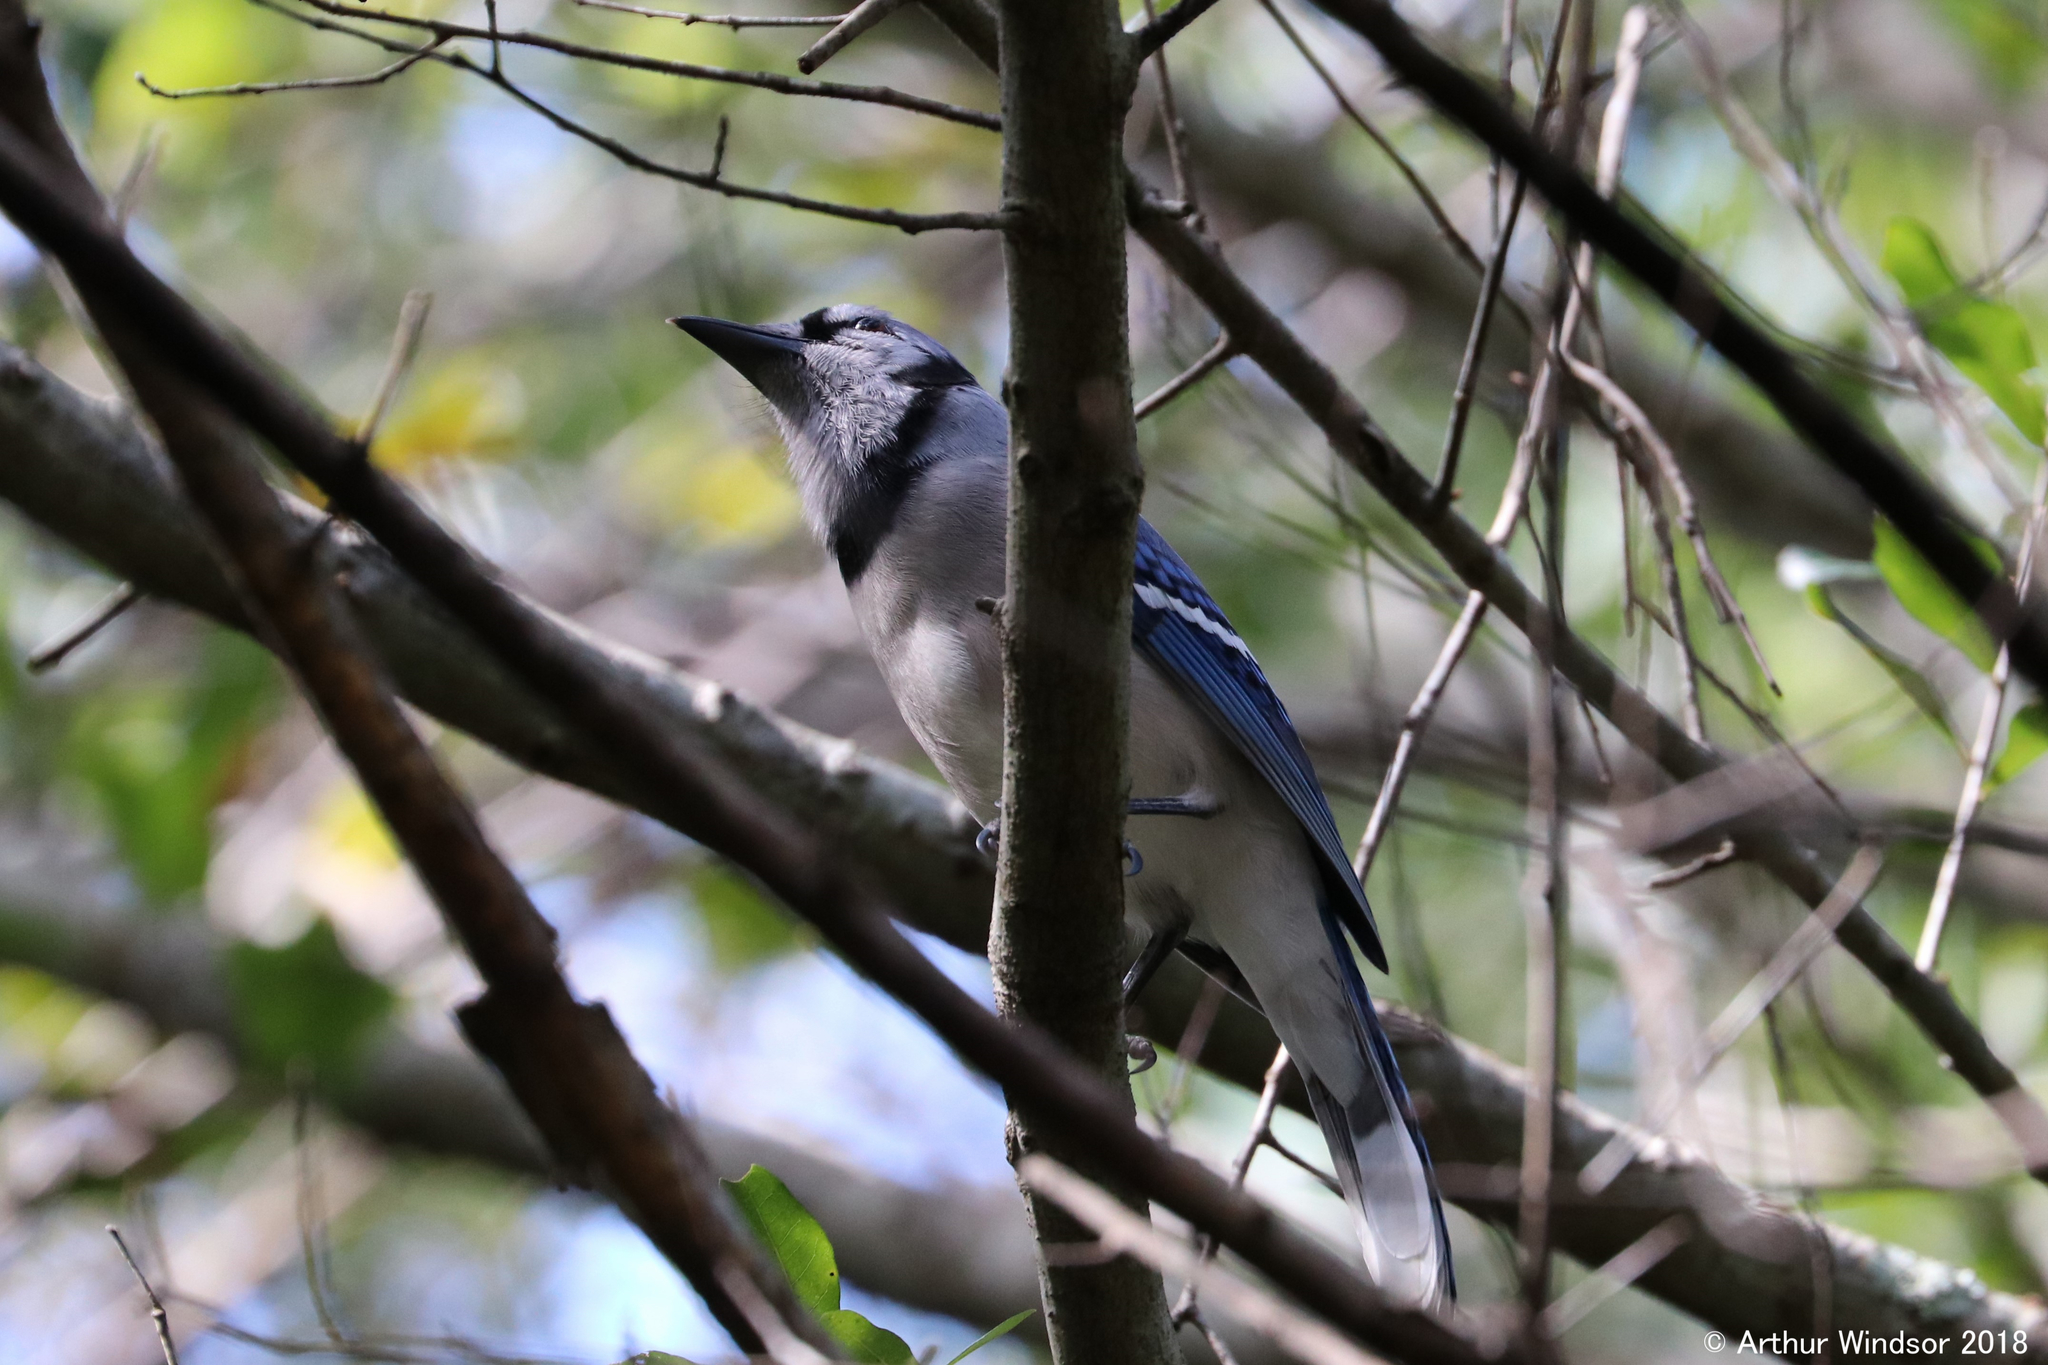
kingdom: Animalia
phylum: Chordata
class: Aves
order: Passeriformes
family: Corvidae
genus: Cyanocitta
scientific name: Cyanocitta cristata
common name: Blue jay
